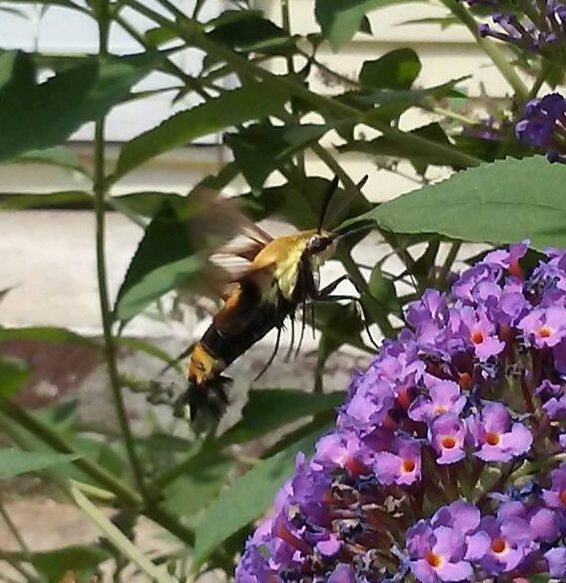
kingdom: Animalia
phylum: Arthropoda
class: Insecta
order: Lepidoptera
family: Sphingidae
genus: Hemaris
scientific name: Hemaris diffinis
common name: Bumblebee moth
